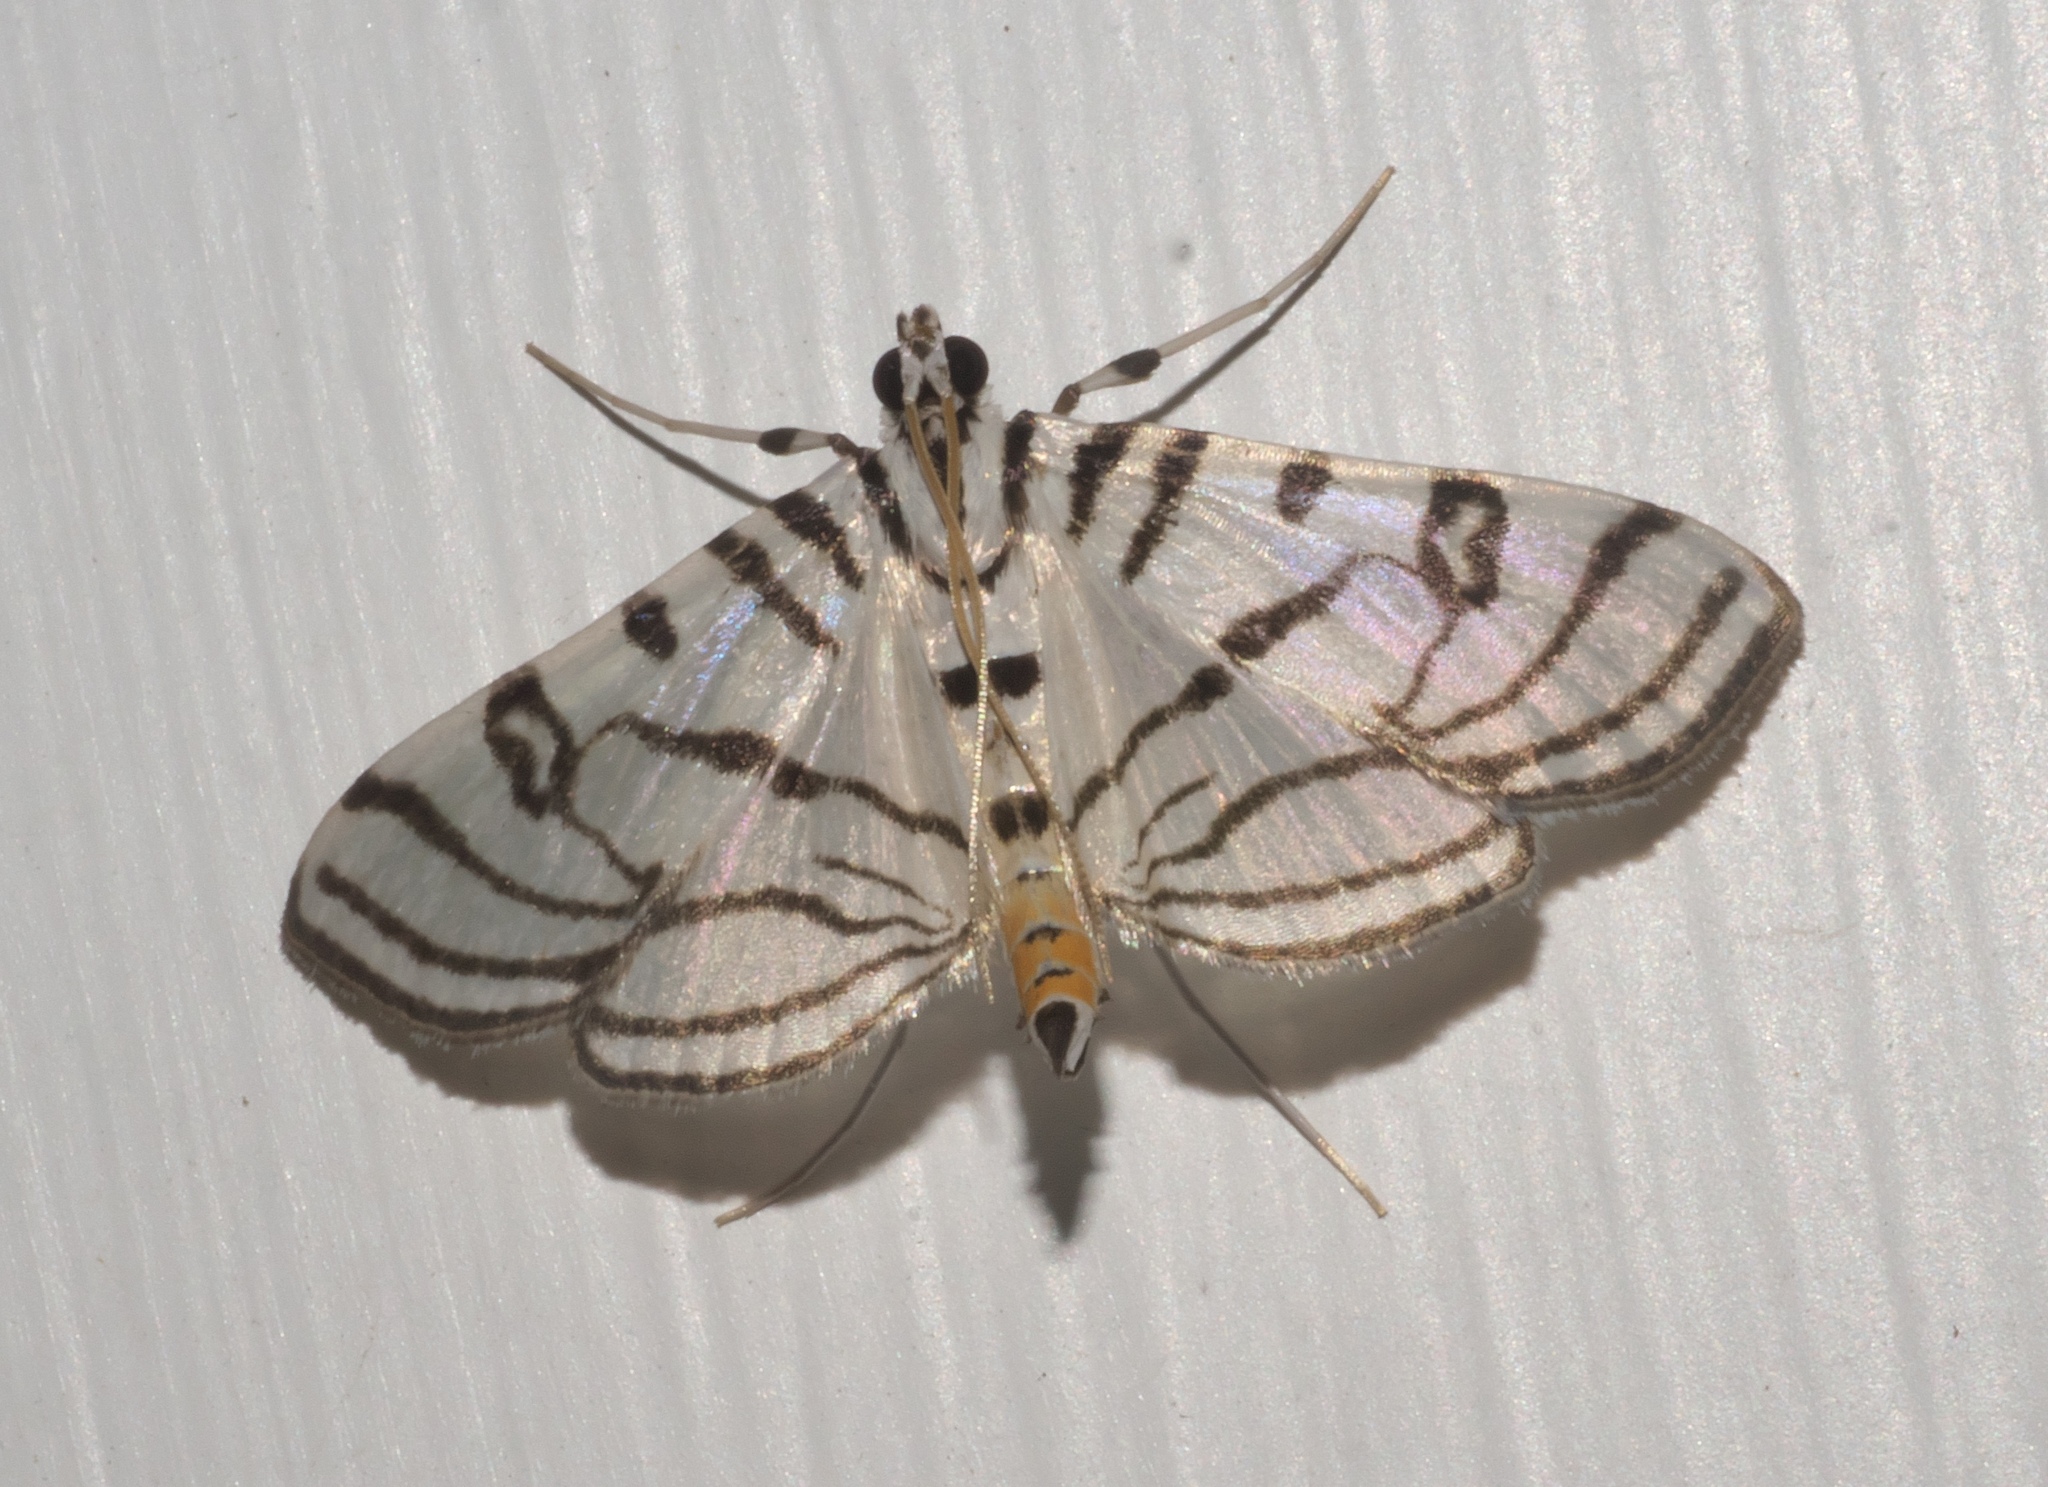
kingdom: Animalia
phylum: Arthropoda
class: Insecta
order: Lepidoptera
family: Crambidae
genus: Conchylodes
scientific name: Conchylodes ovulalis
